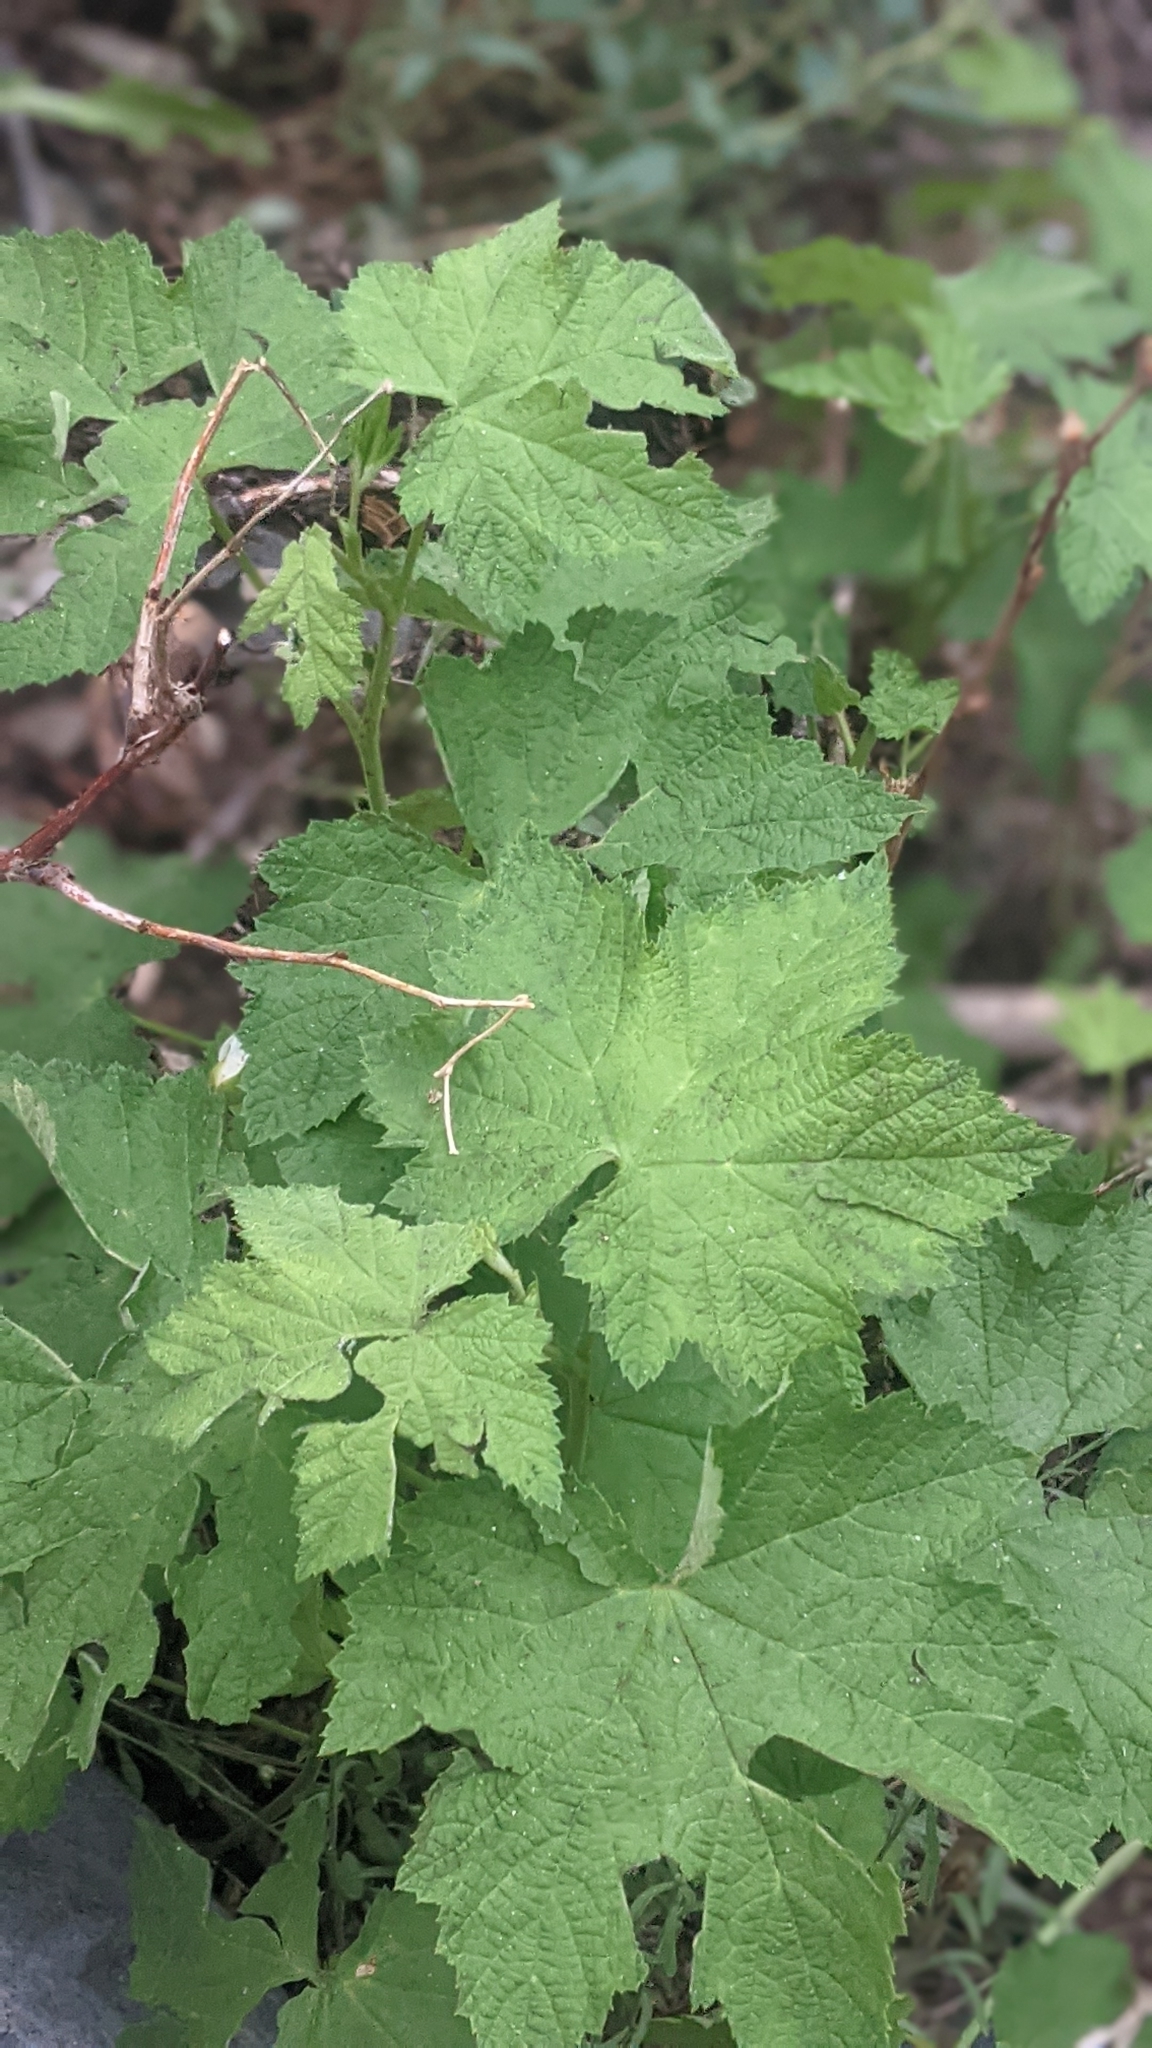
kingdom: Plantae
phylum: Tracheophyta
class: Magnoliopsida
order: Rosales
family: Rosaceae
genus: Rubus
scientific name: Rubus parviflorus
